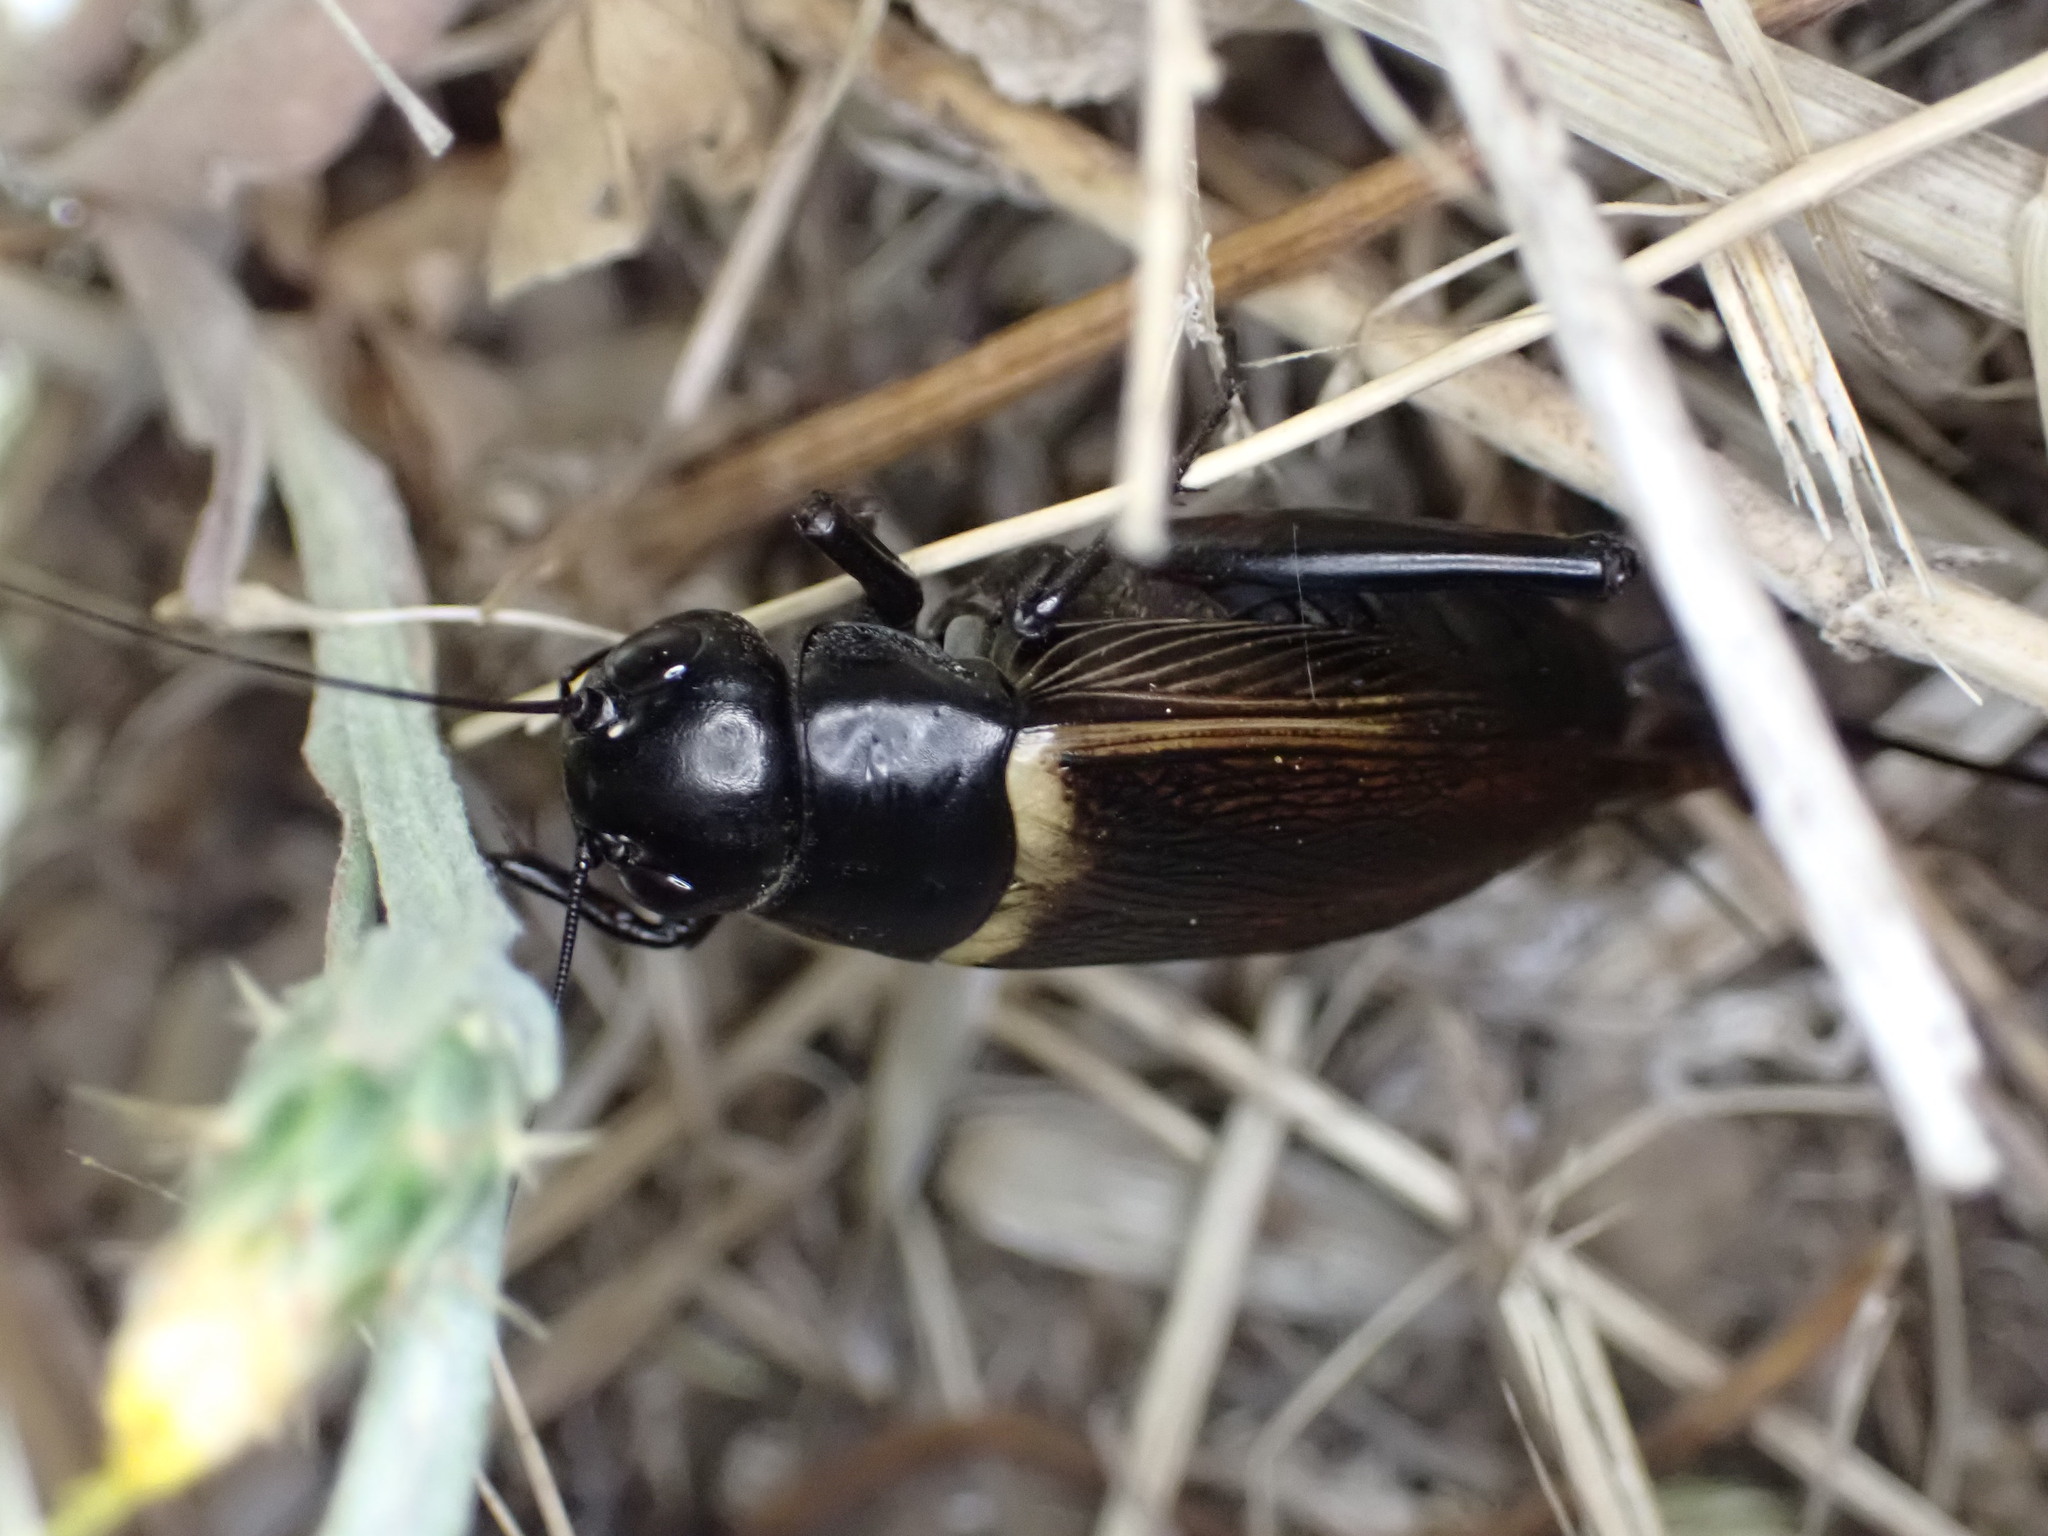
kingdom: Animalia
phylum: Arthropoda
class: Insecta
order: Orthoptera
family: Gryllidae
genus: Gryllus
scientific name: Gryllus bimaculatus
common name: Two-spotted cricket
